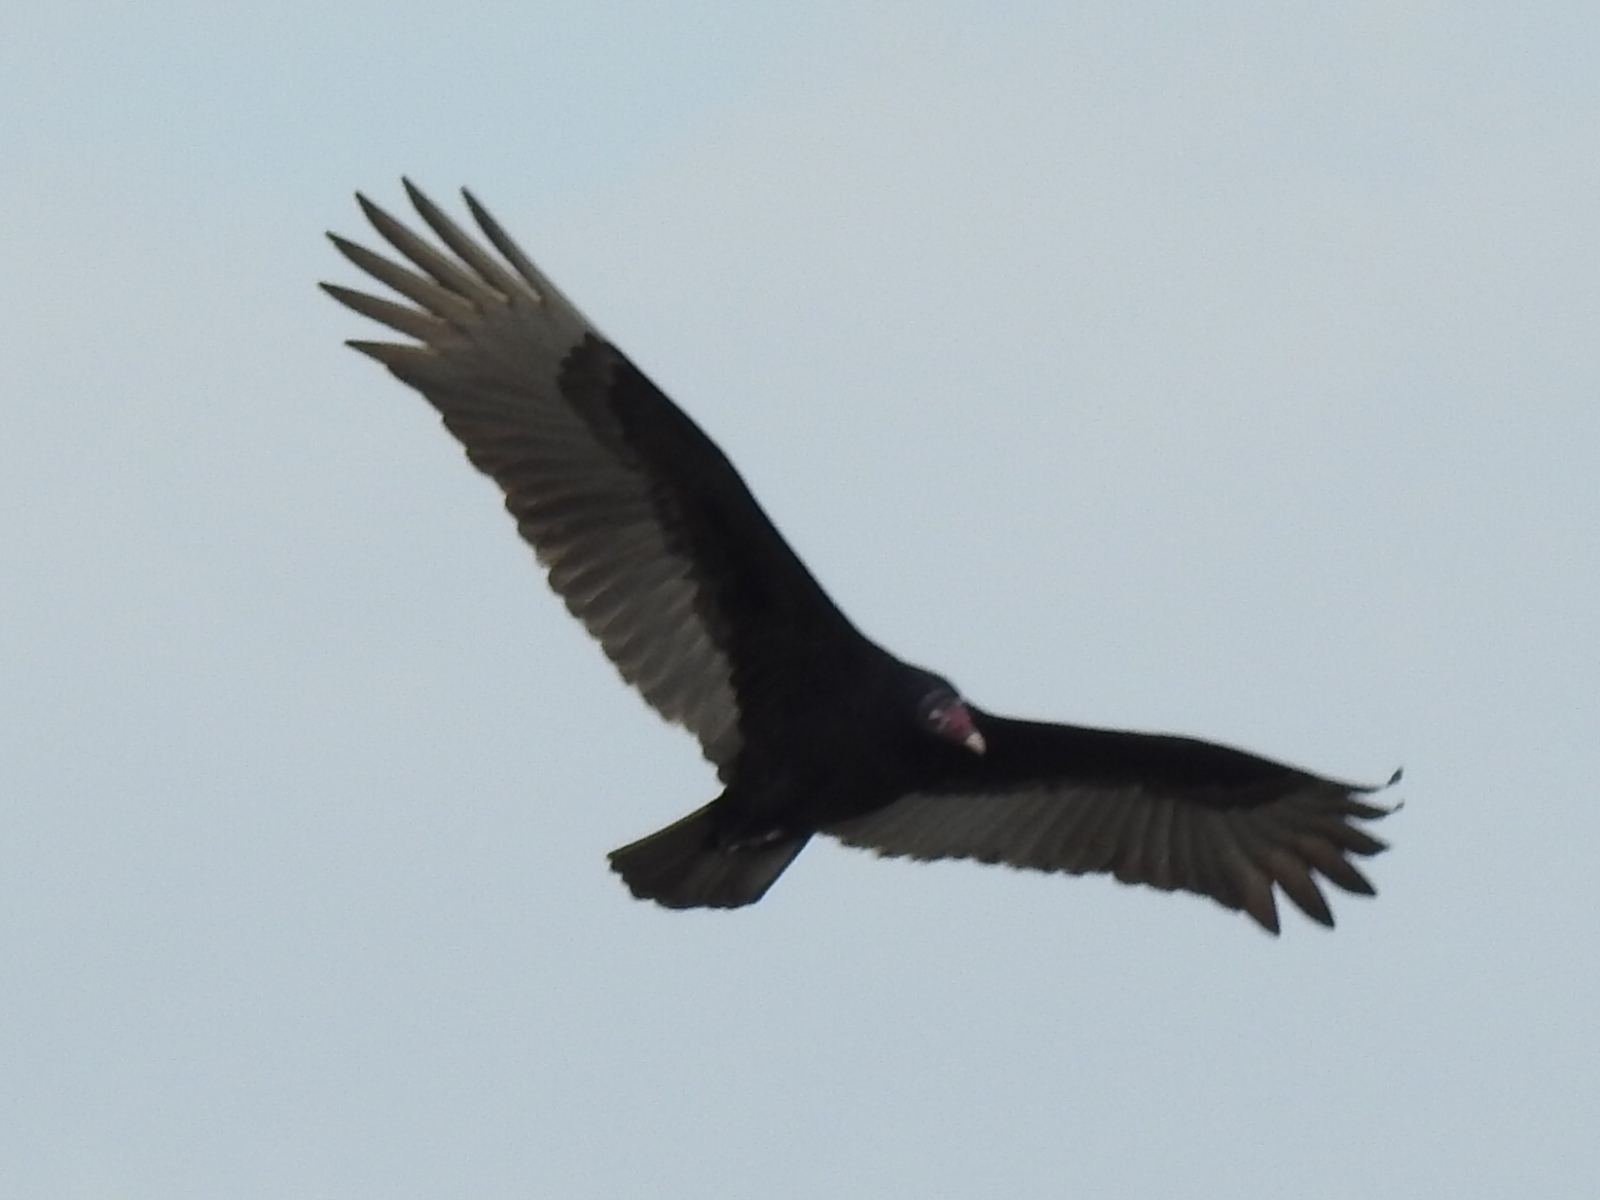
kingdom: Animalia
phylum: Chordata
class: Aves
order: Accipitriformes
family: Cathartidae
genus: Cathartes
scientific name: Cathartes aura
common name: Turkey vulture
